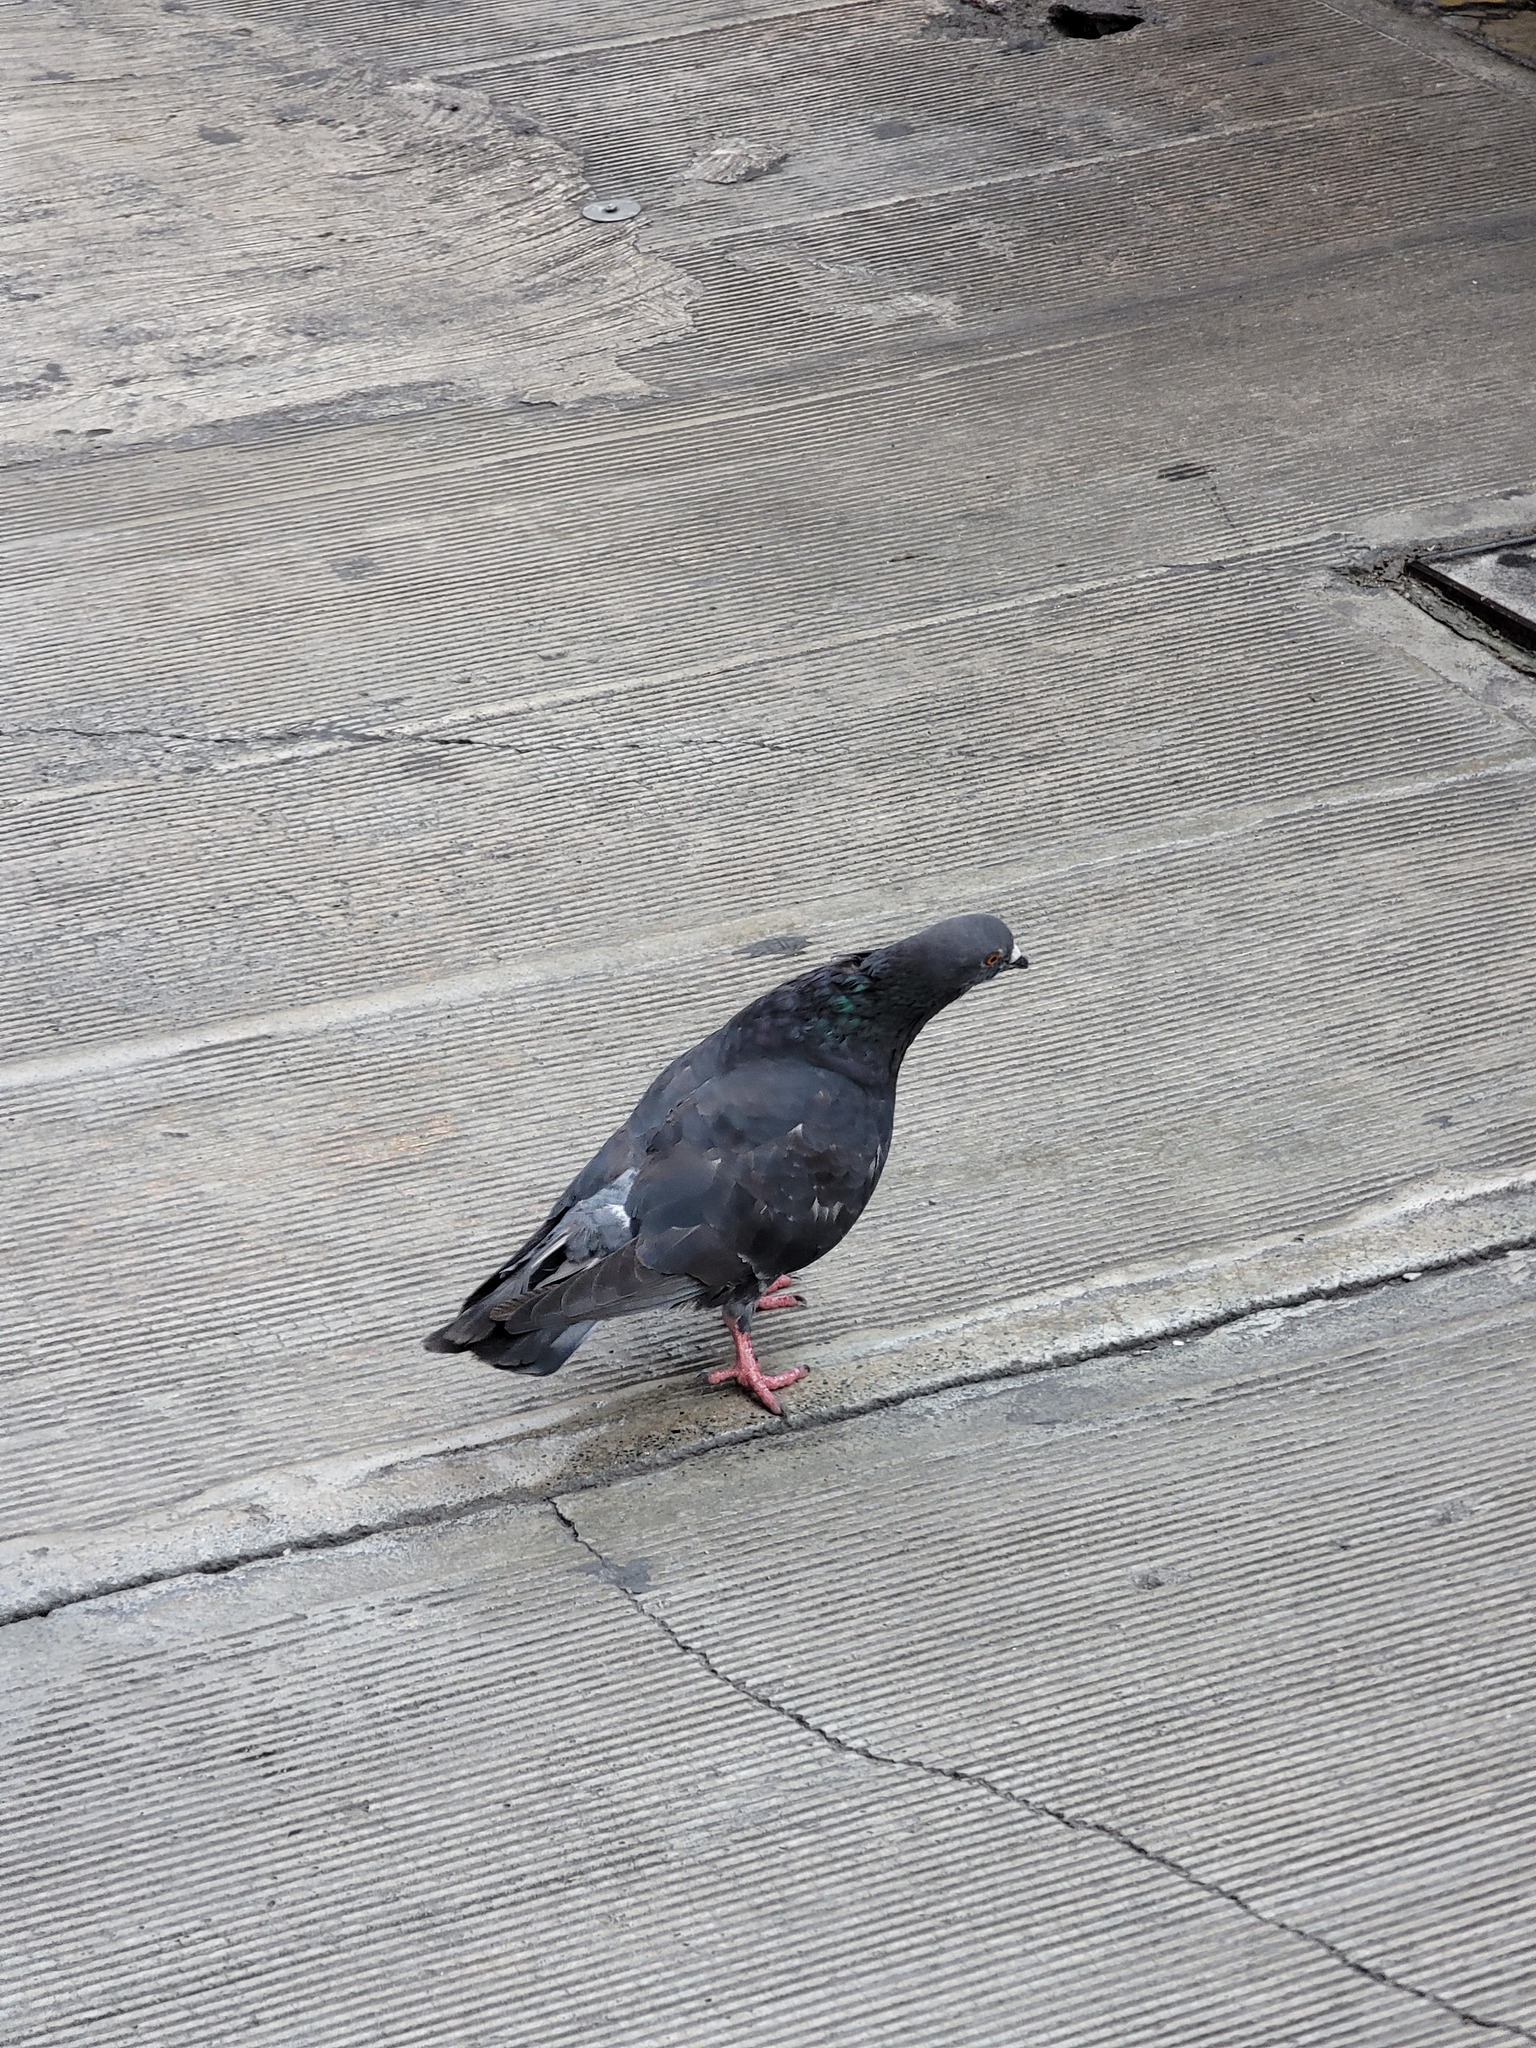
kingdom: Animalia
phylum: Chordata
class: Aves
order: Columbiformes
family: Columbidae
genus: Columba
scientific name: Columba livia
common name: Rock pigeon
